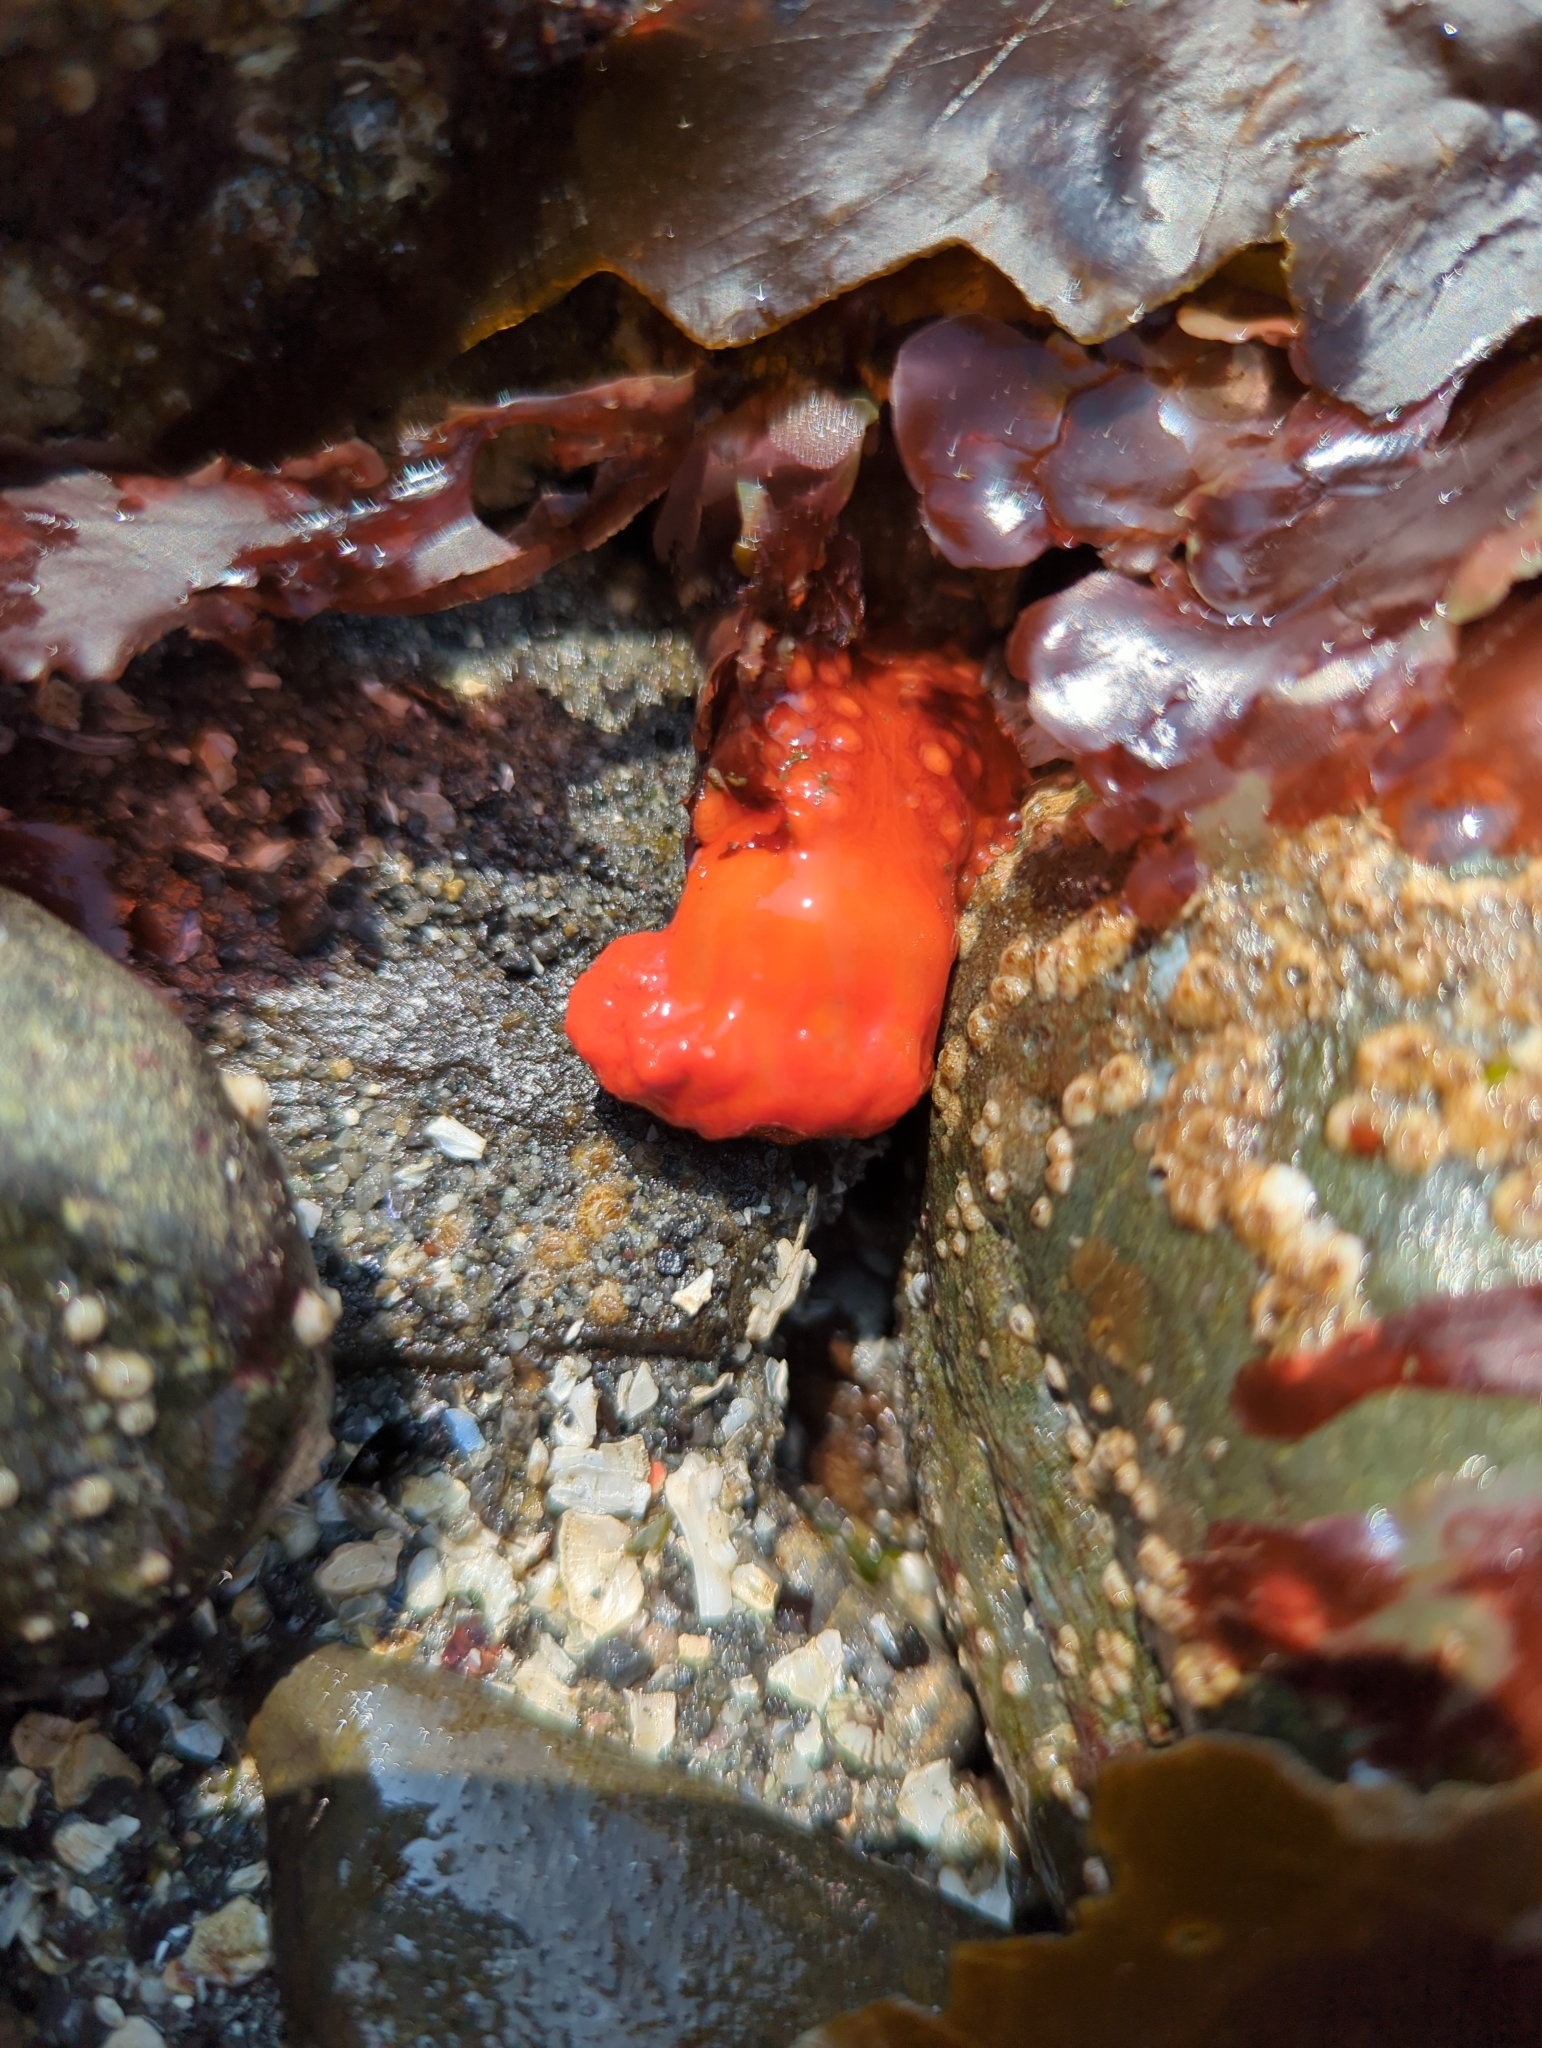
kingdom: Animalia
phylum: Echinodermata
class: Holothuroidea
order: Dendrochirotida
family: Cucumariidae
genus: Cucumaria
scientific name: Cucumaria miniata
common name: Orange sea cucumber
